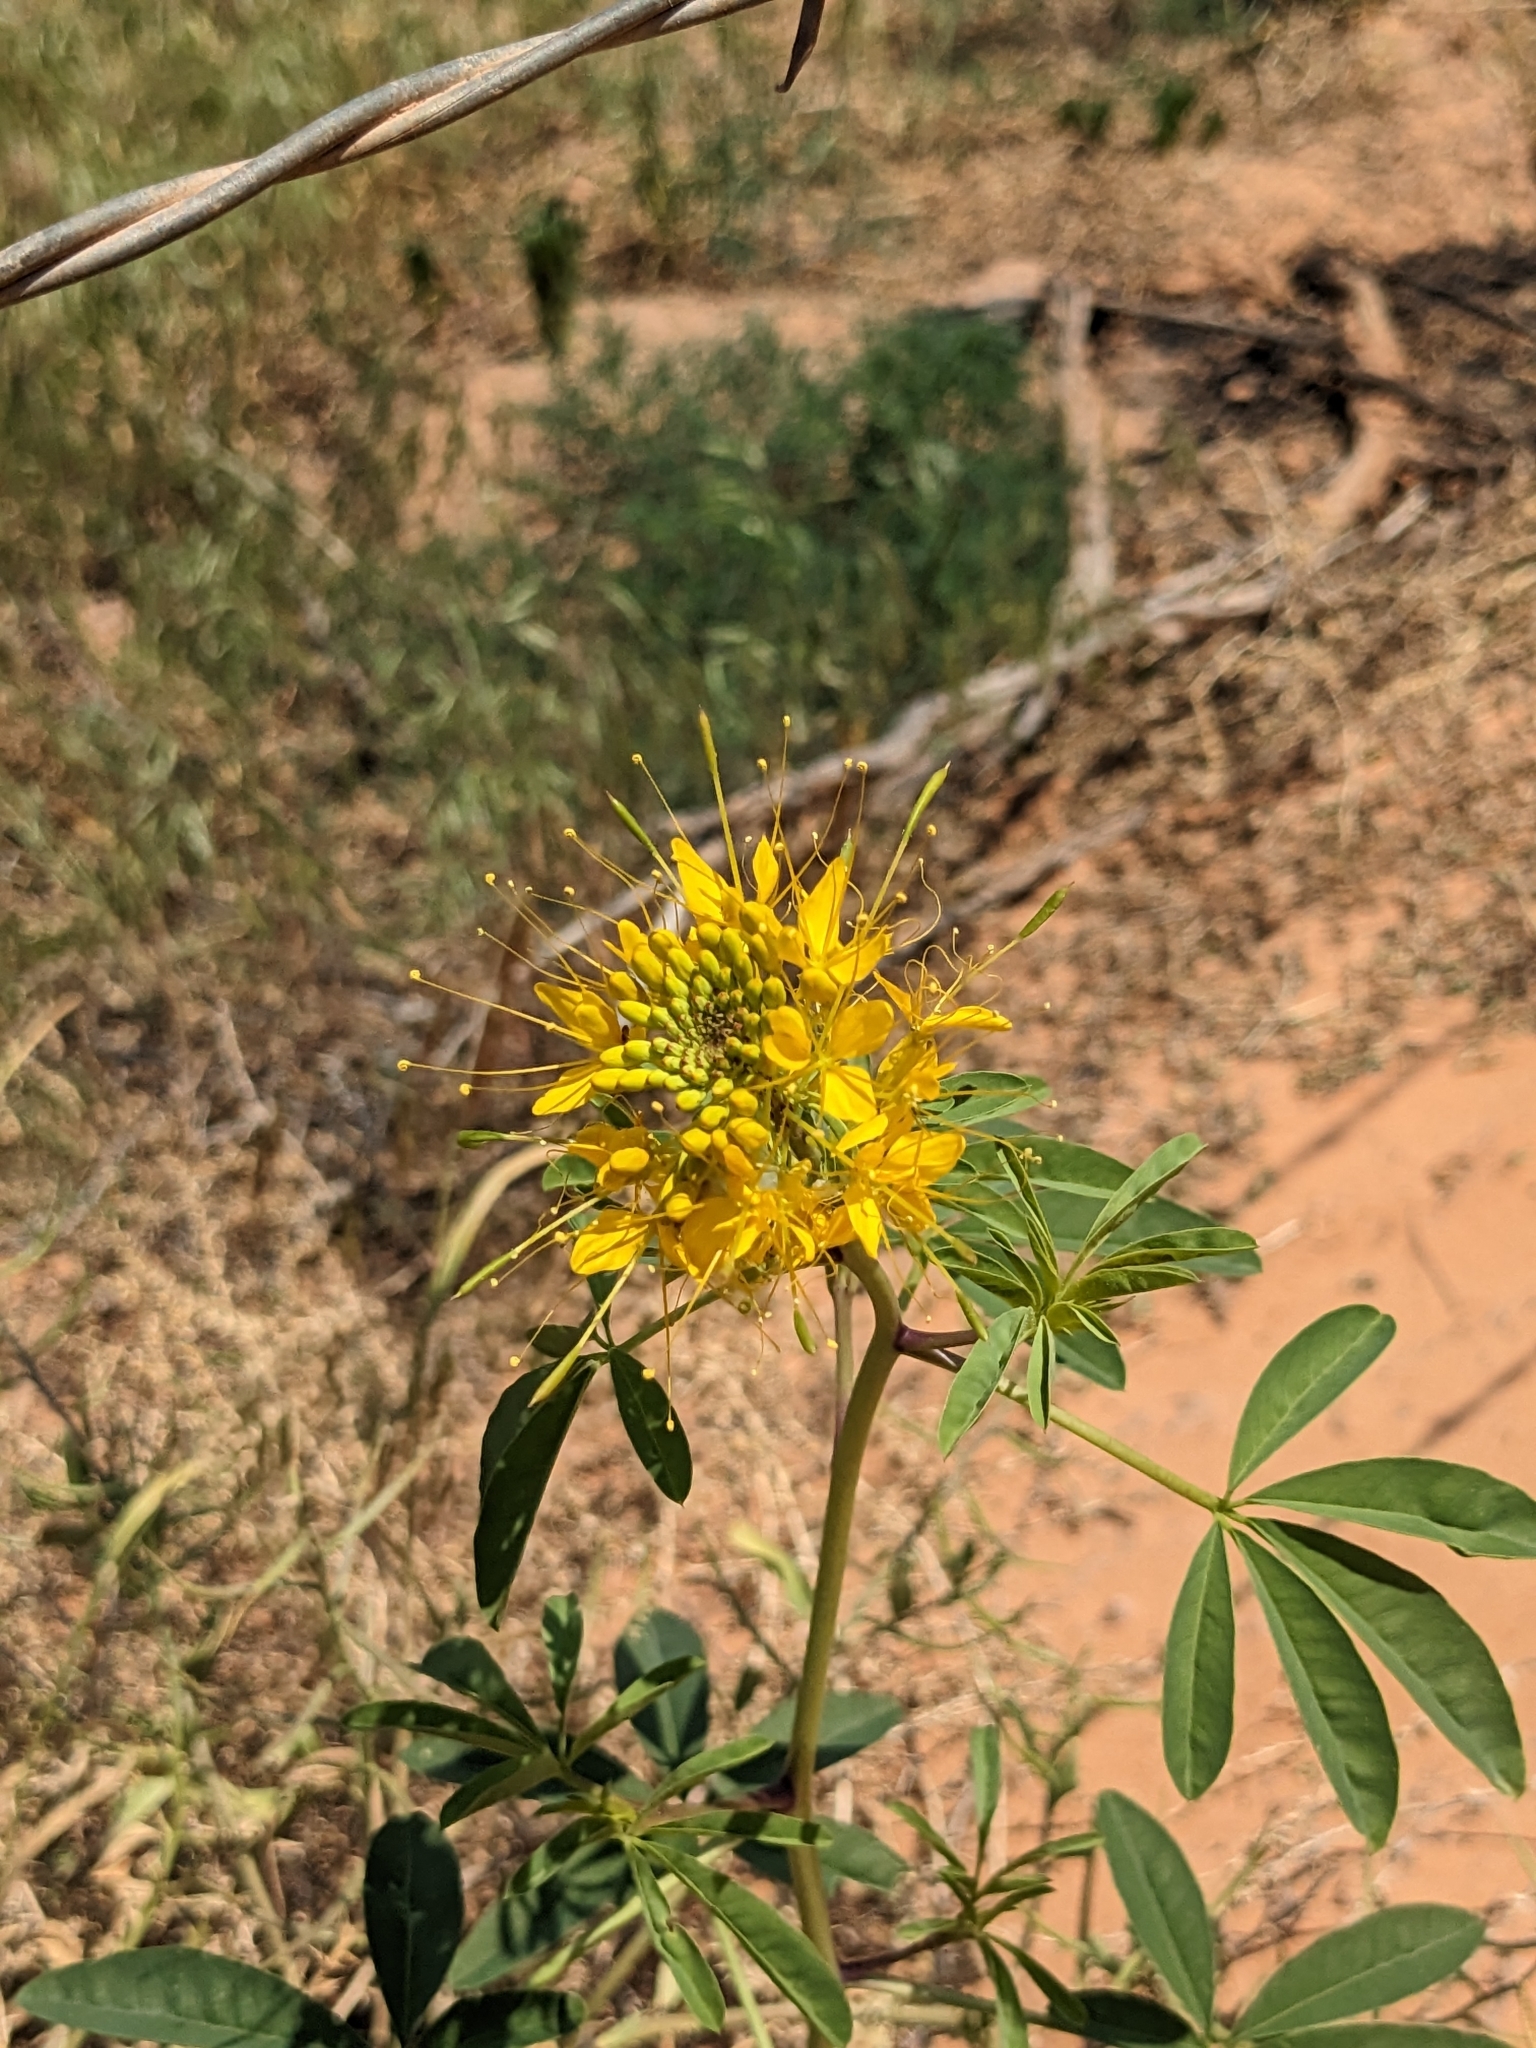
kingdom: Plantae
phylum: Tracheophyta
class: Magnoliopsida
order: Brassicales
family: Cleomaceae
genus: Cleomella
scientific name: Cleomella lutea
